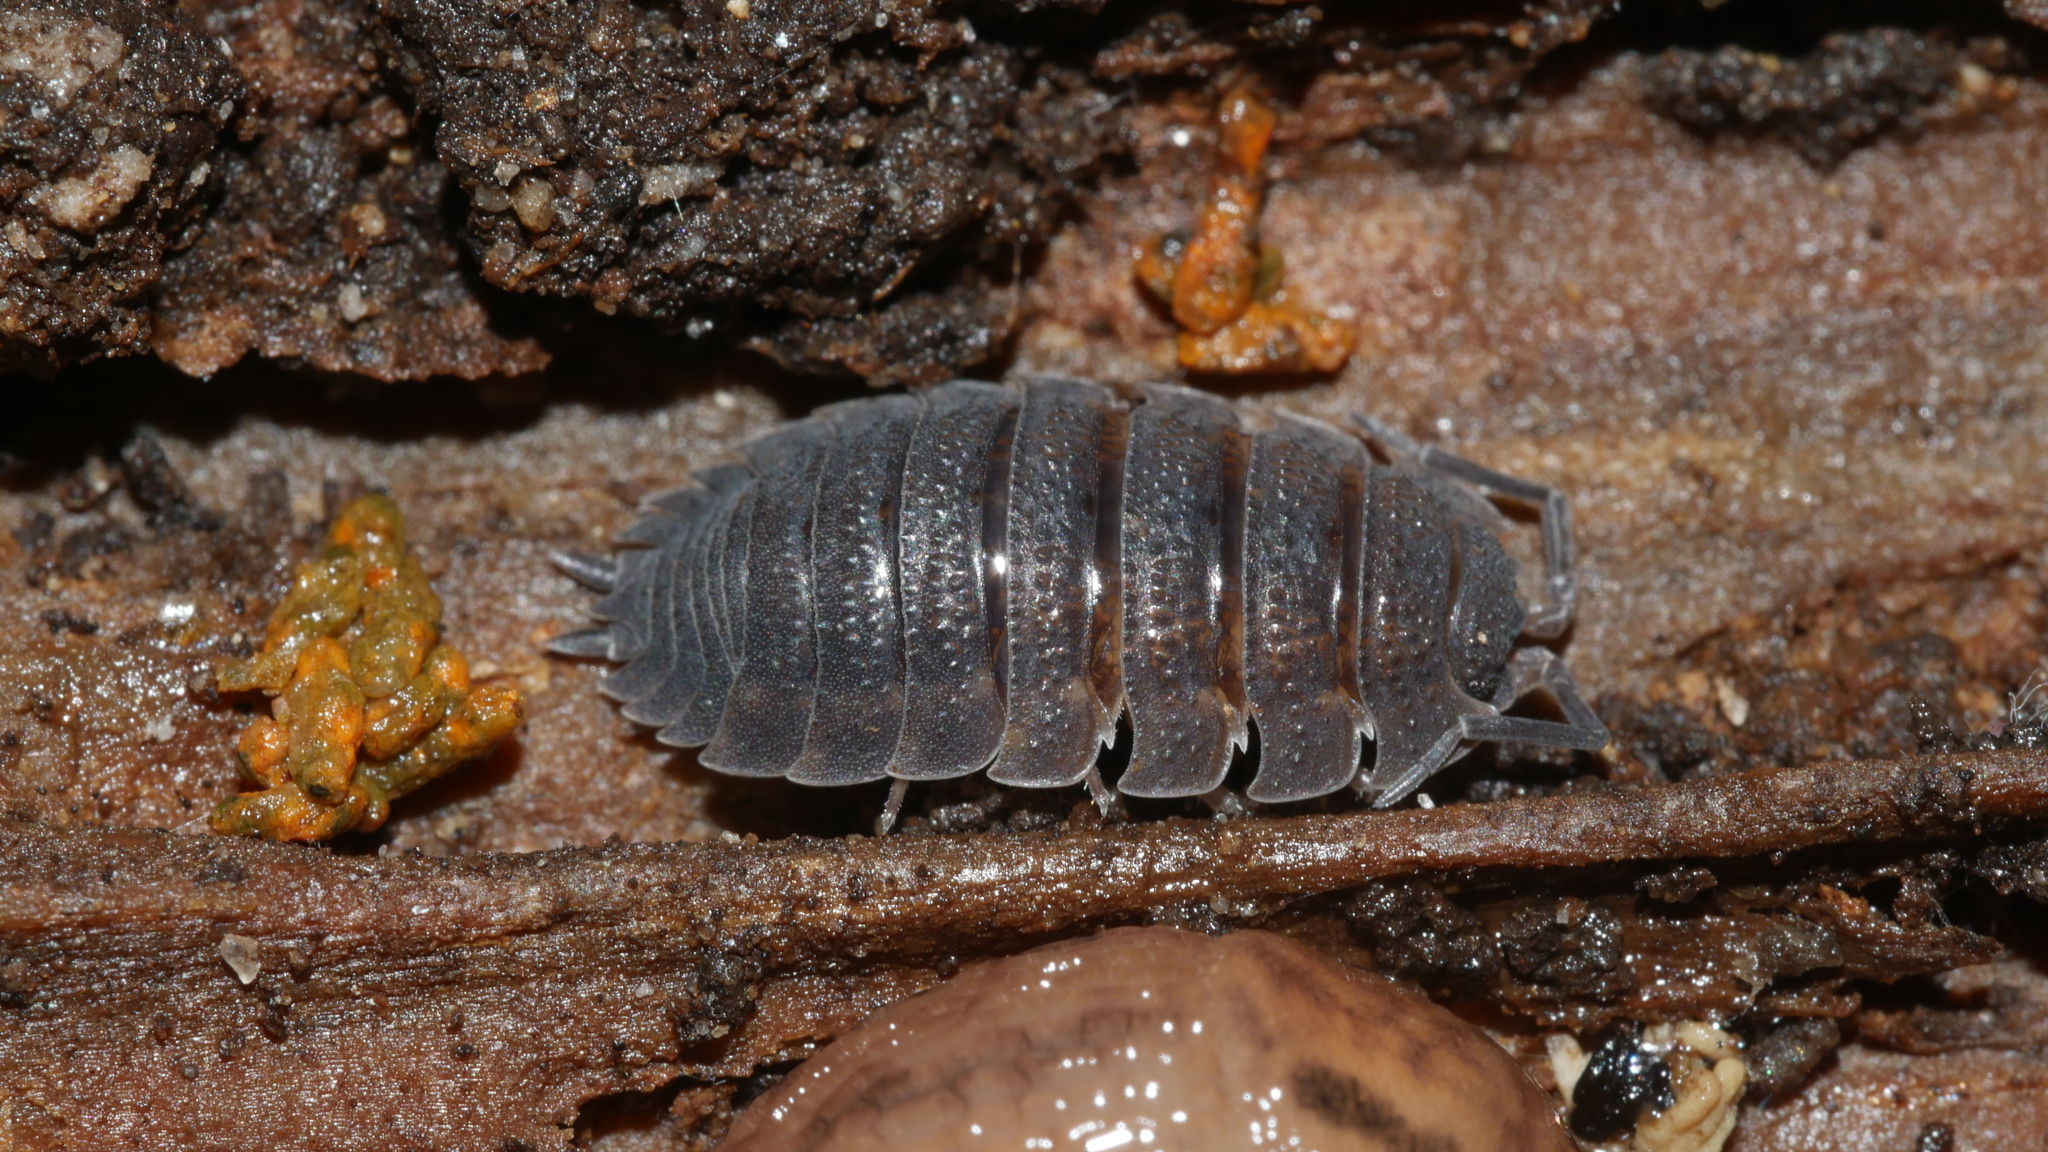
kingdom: Animalia
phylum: Arthropoda
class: Malacostraca
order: Isopoda
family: Porcellionidae
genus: Porcellio
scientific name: Porcellio scaber
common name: Common rough woodlouse
